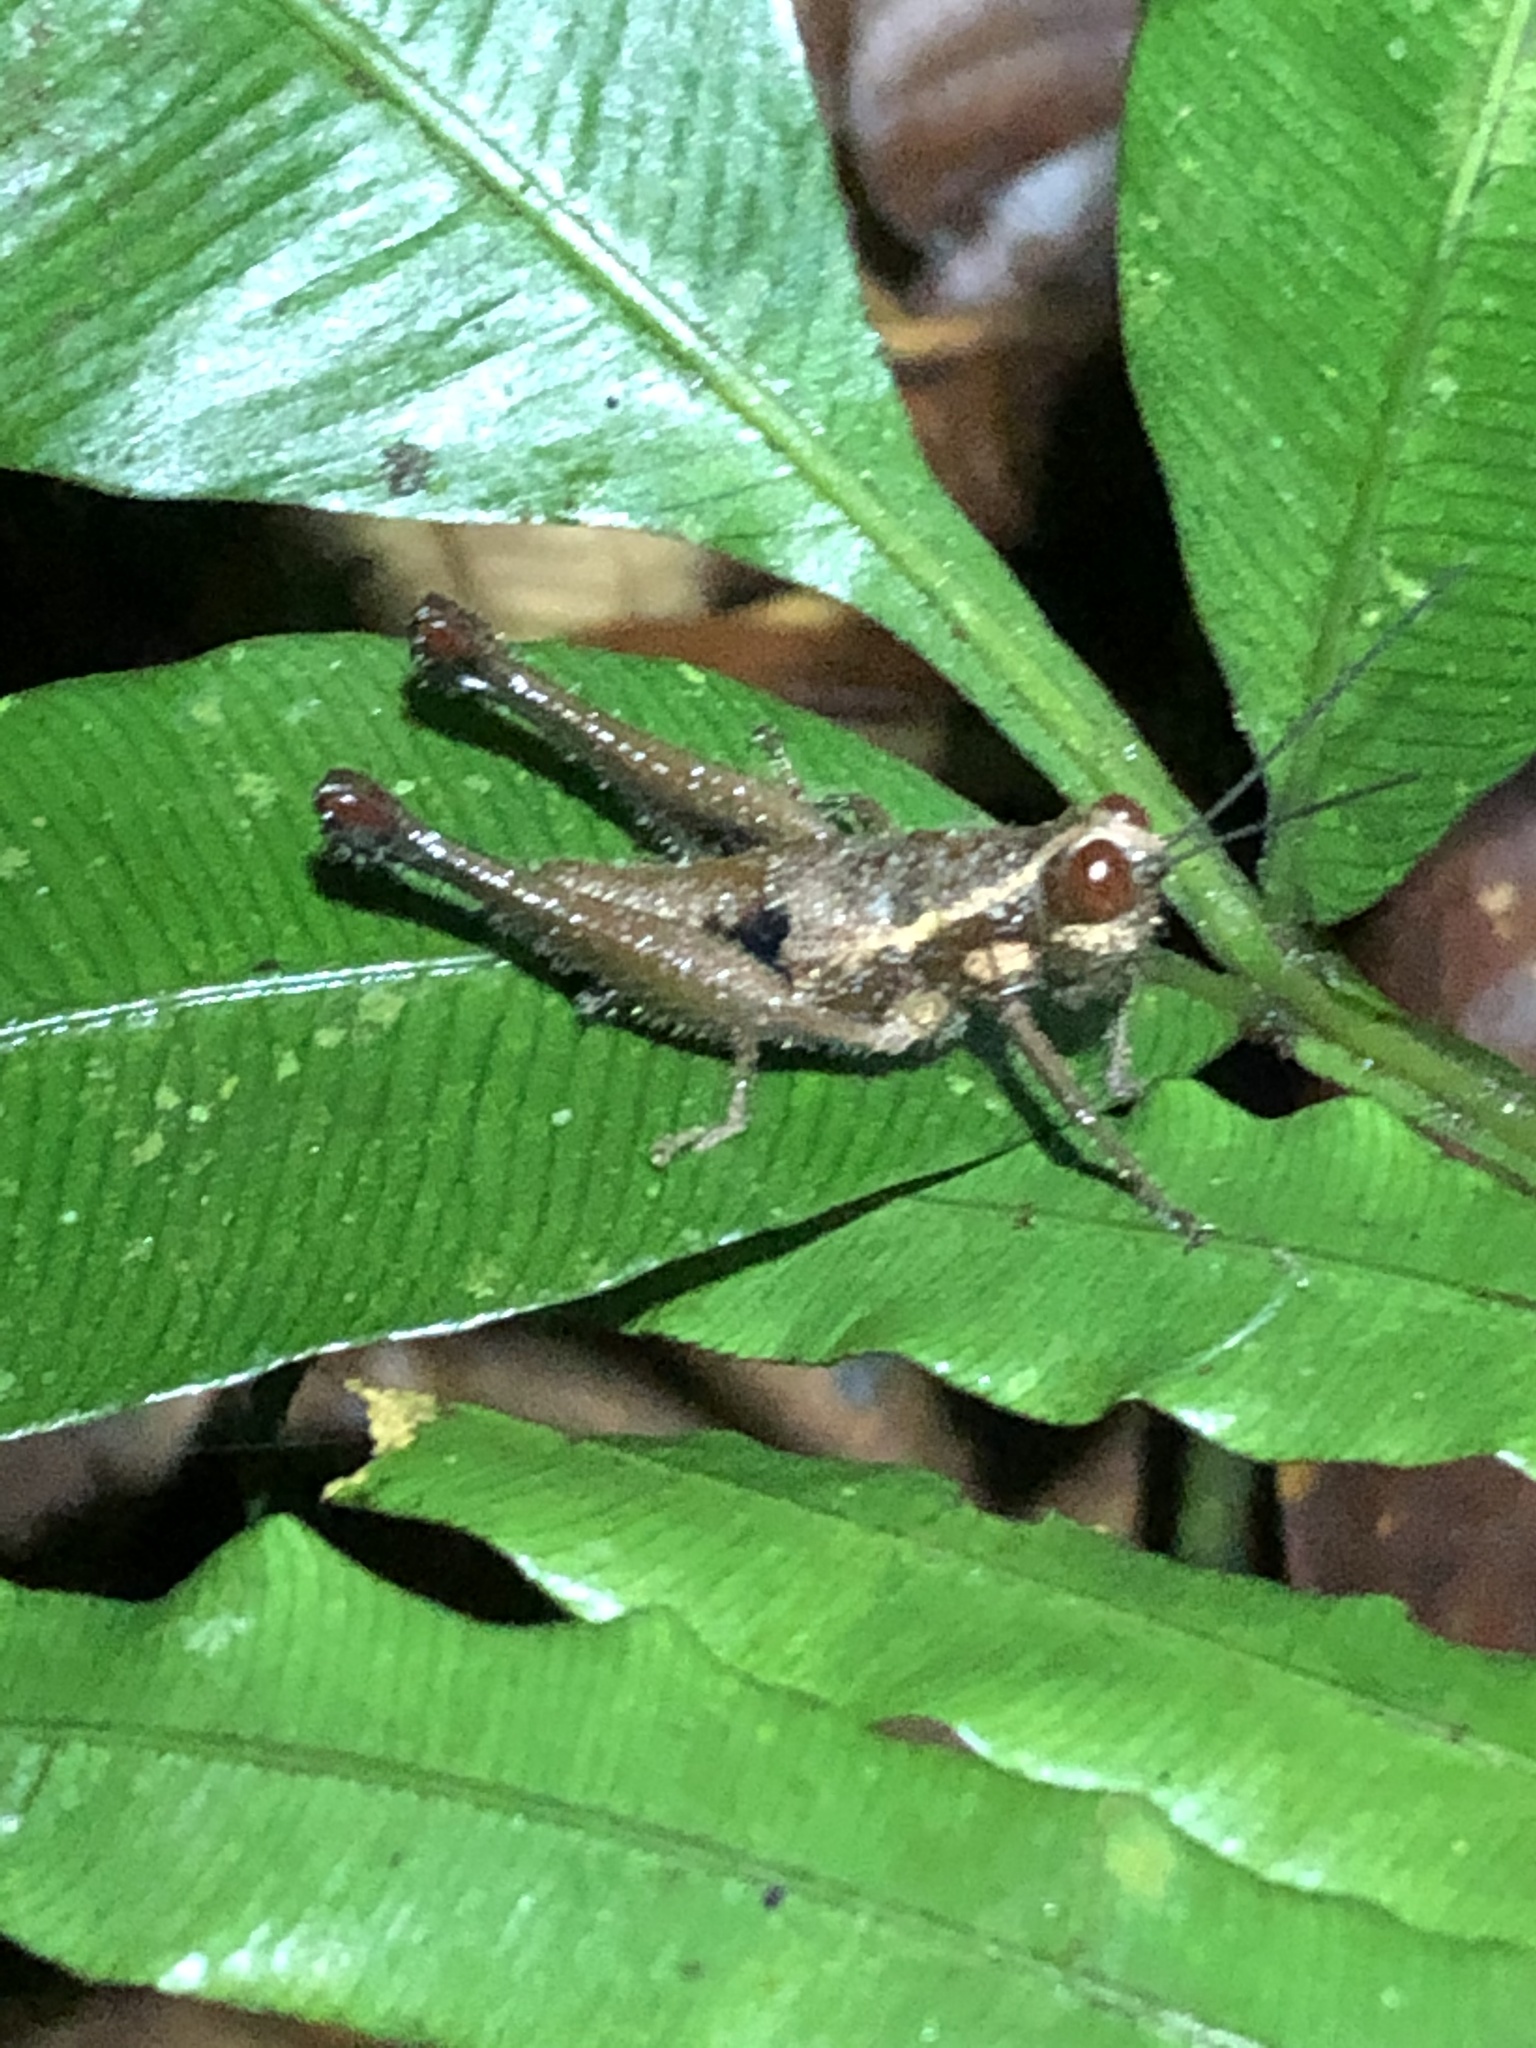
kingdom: Animalia
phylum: Arthropoda
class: Insecta
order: Orthoptera
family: Acrididae
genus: Stenelutracris
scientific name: Stenelutracris lignicola
